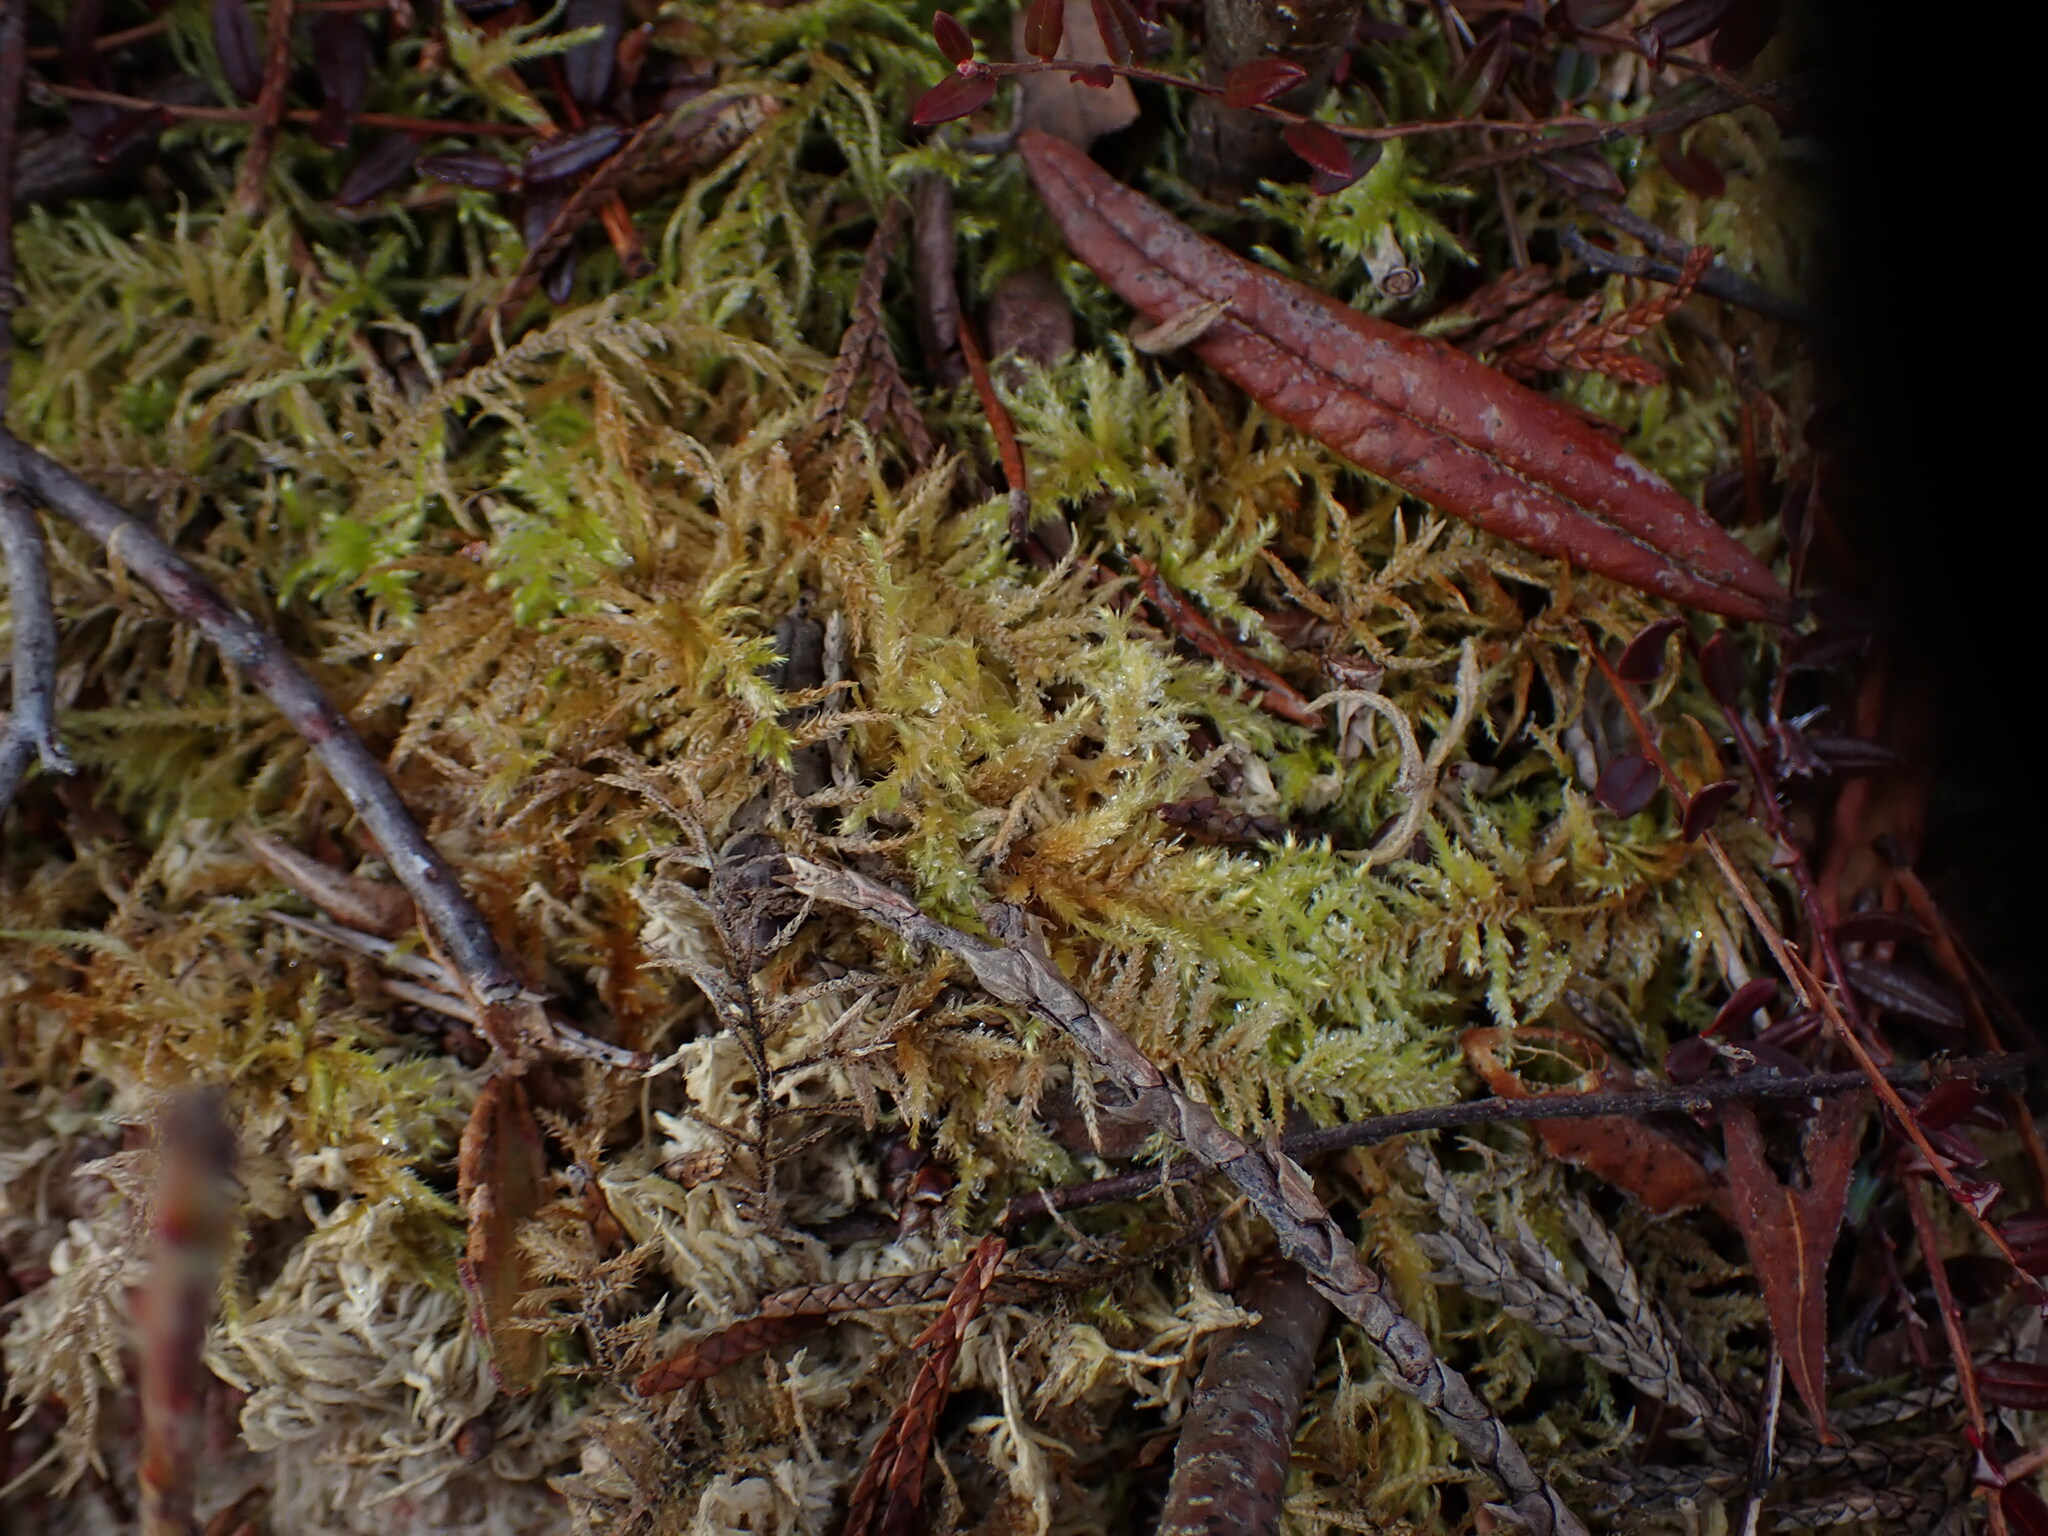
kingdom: Plantae
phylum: Bryophyta
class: Bryopsida
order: Hypnales
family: Brachytheciaceae
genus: Kindbergia
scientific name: Kindbergia oregana
